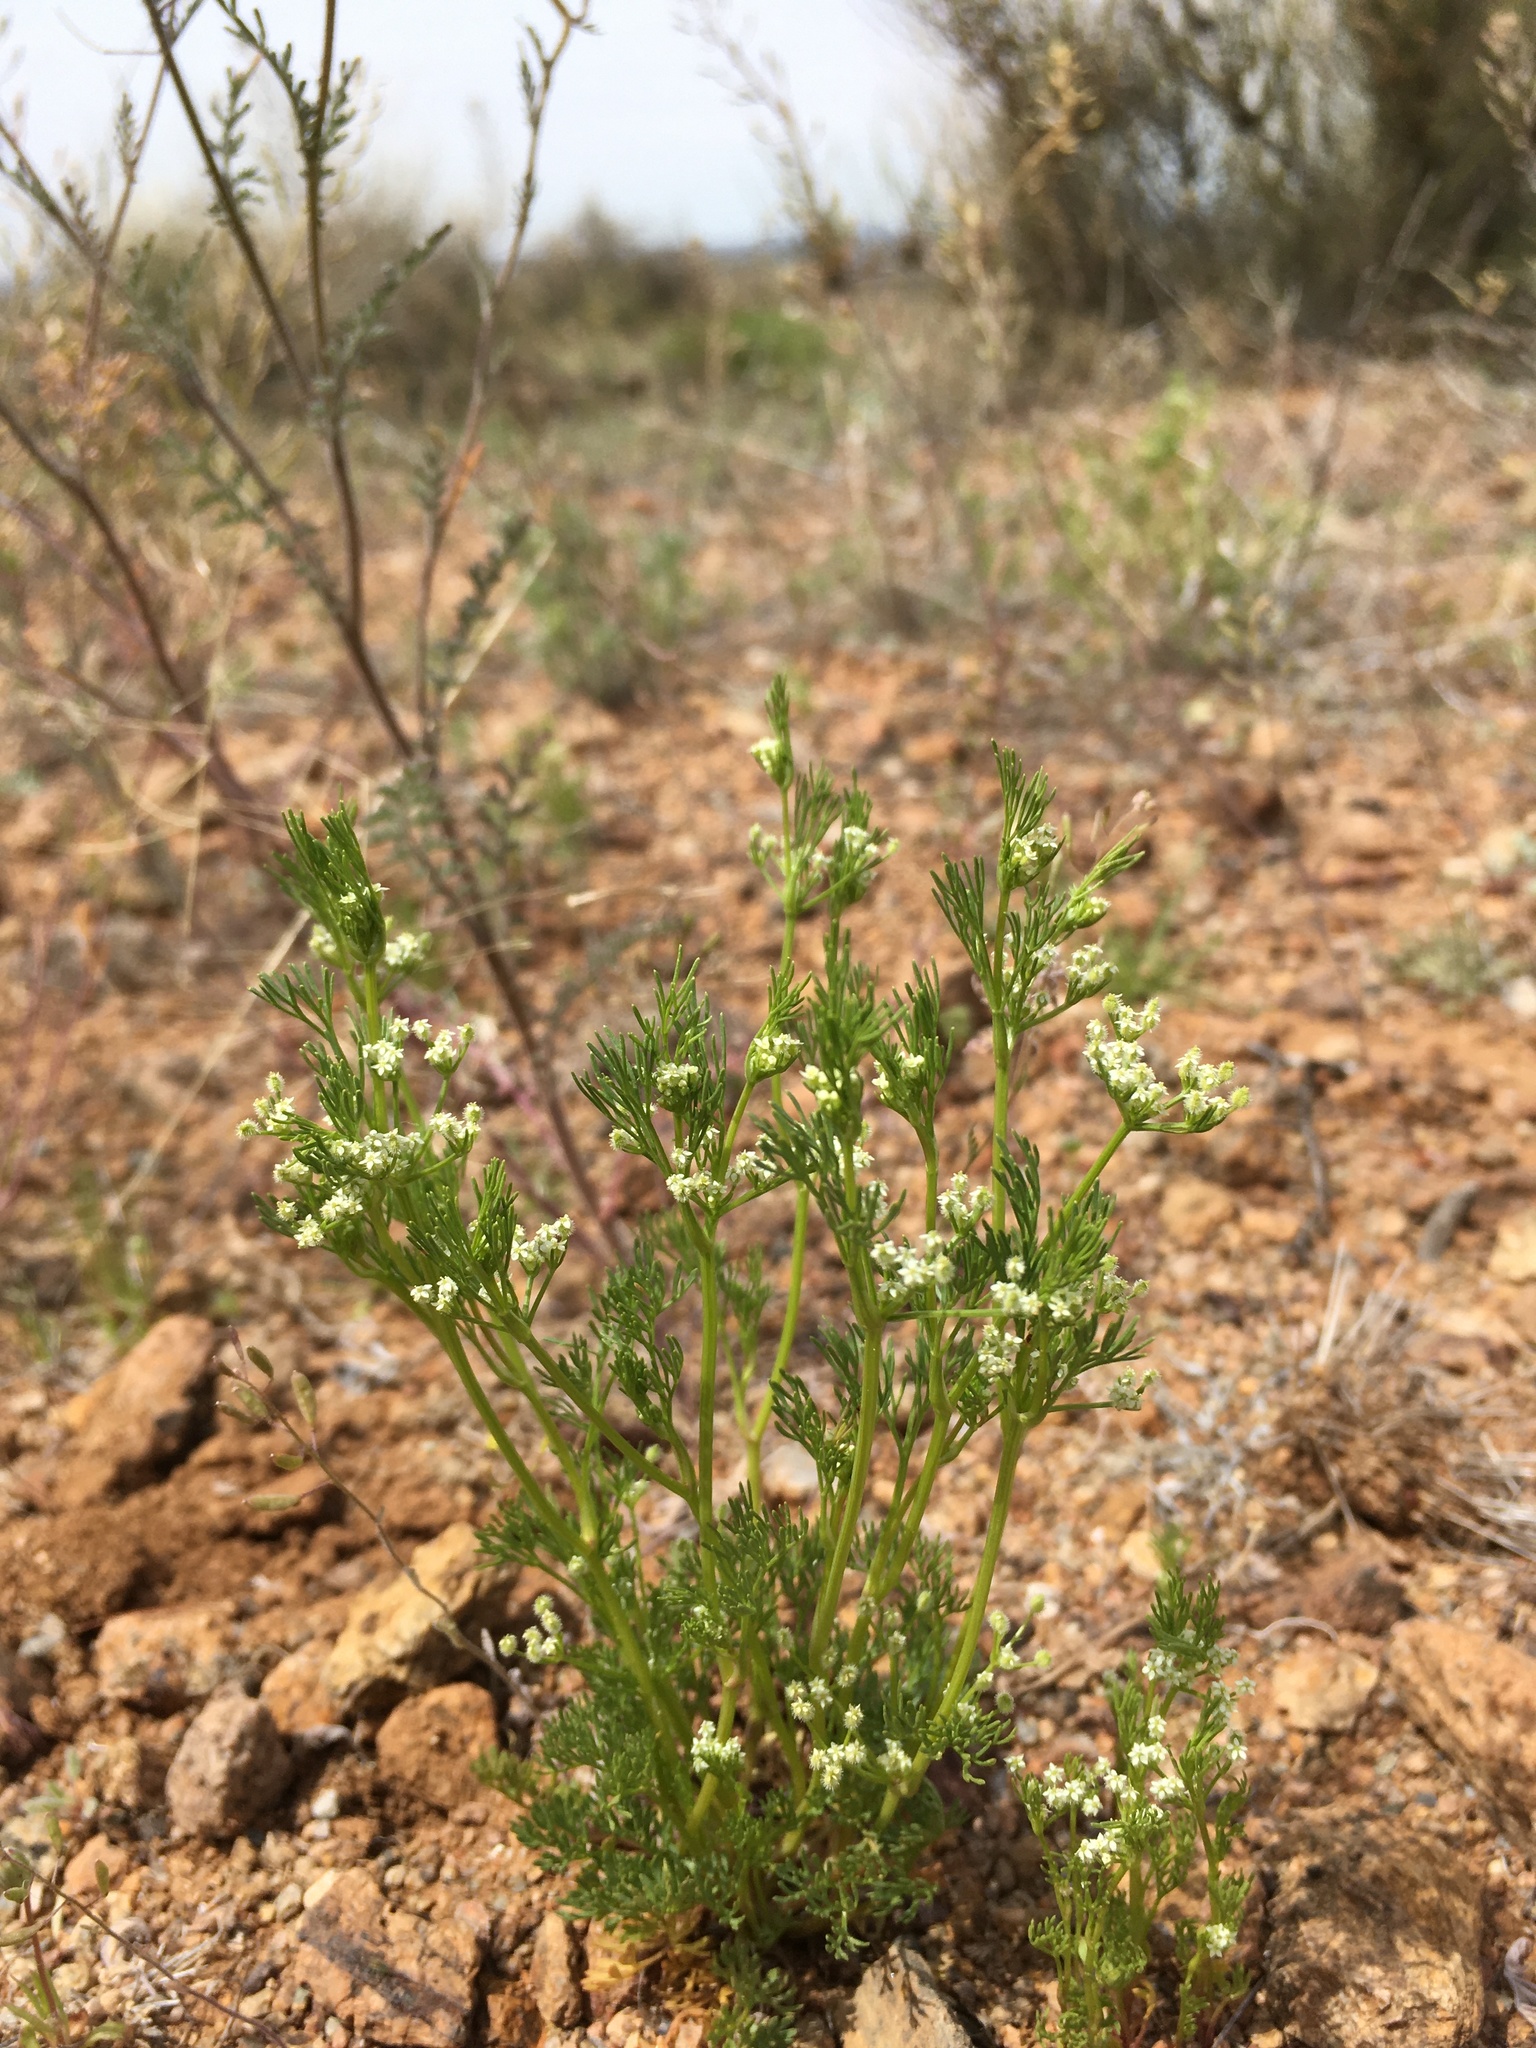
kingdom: Plantae
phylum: Tracheophyta
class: Magnoliopsida
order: Apiales
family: Apiaceae
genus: Spermolepis
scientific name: Spermolepis lateriflora
